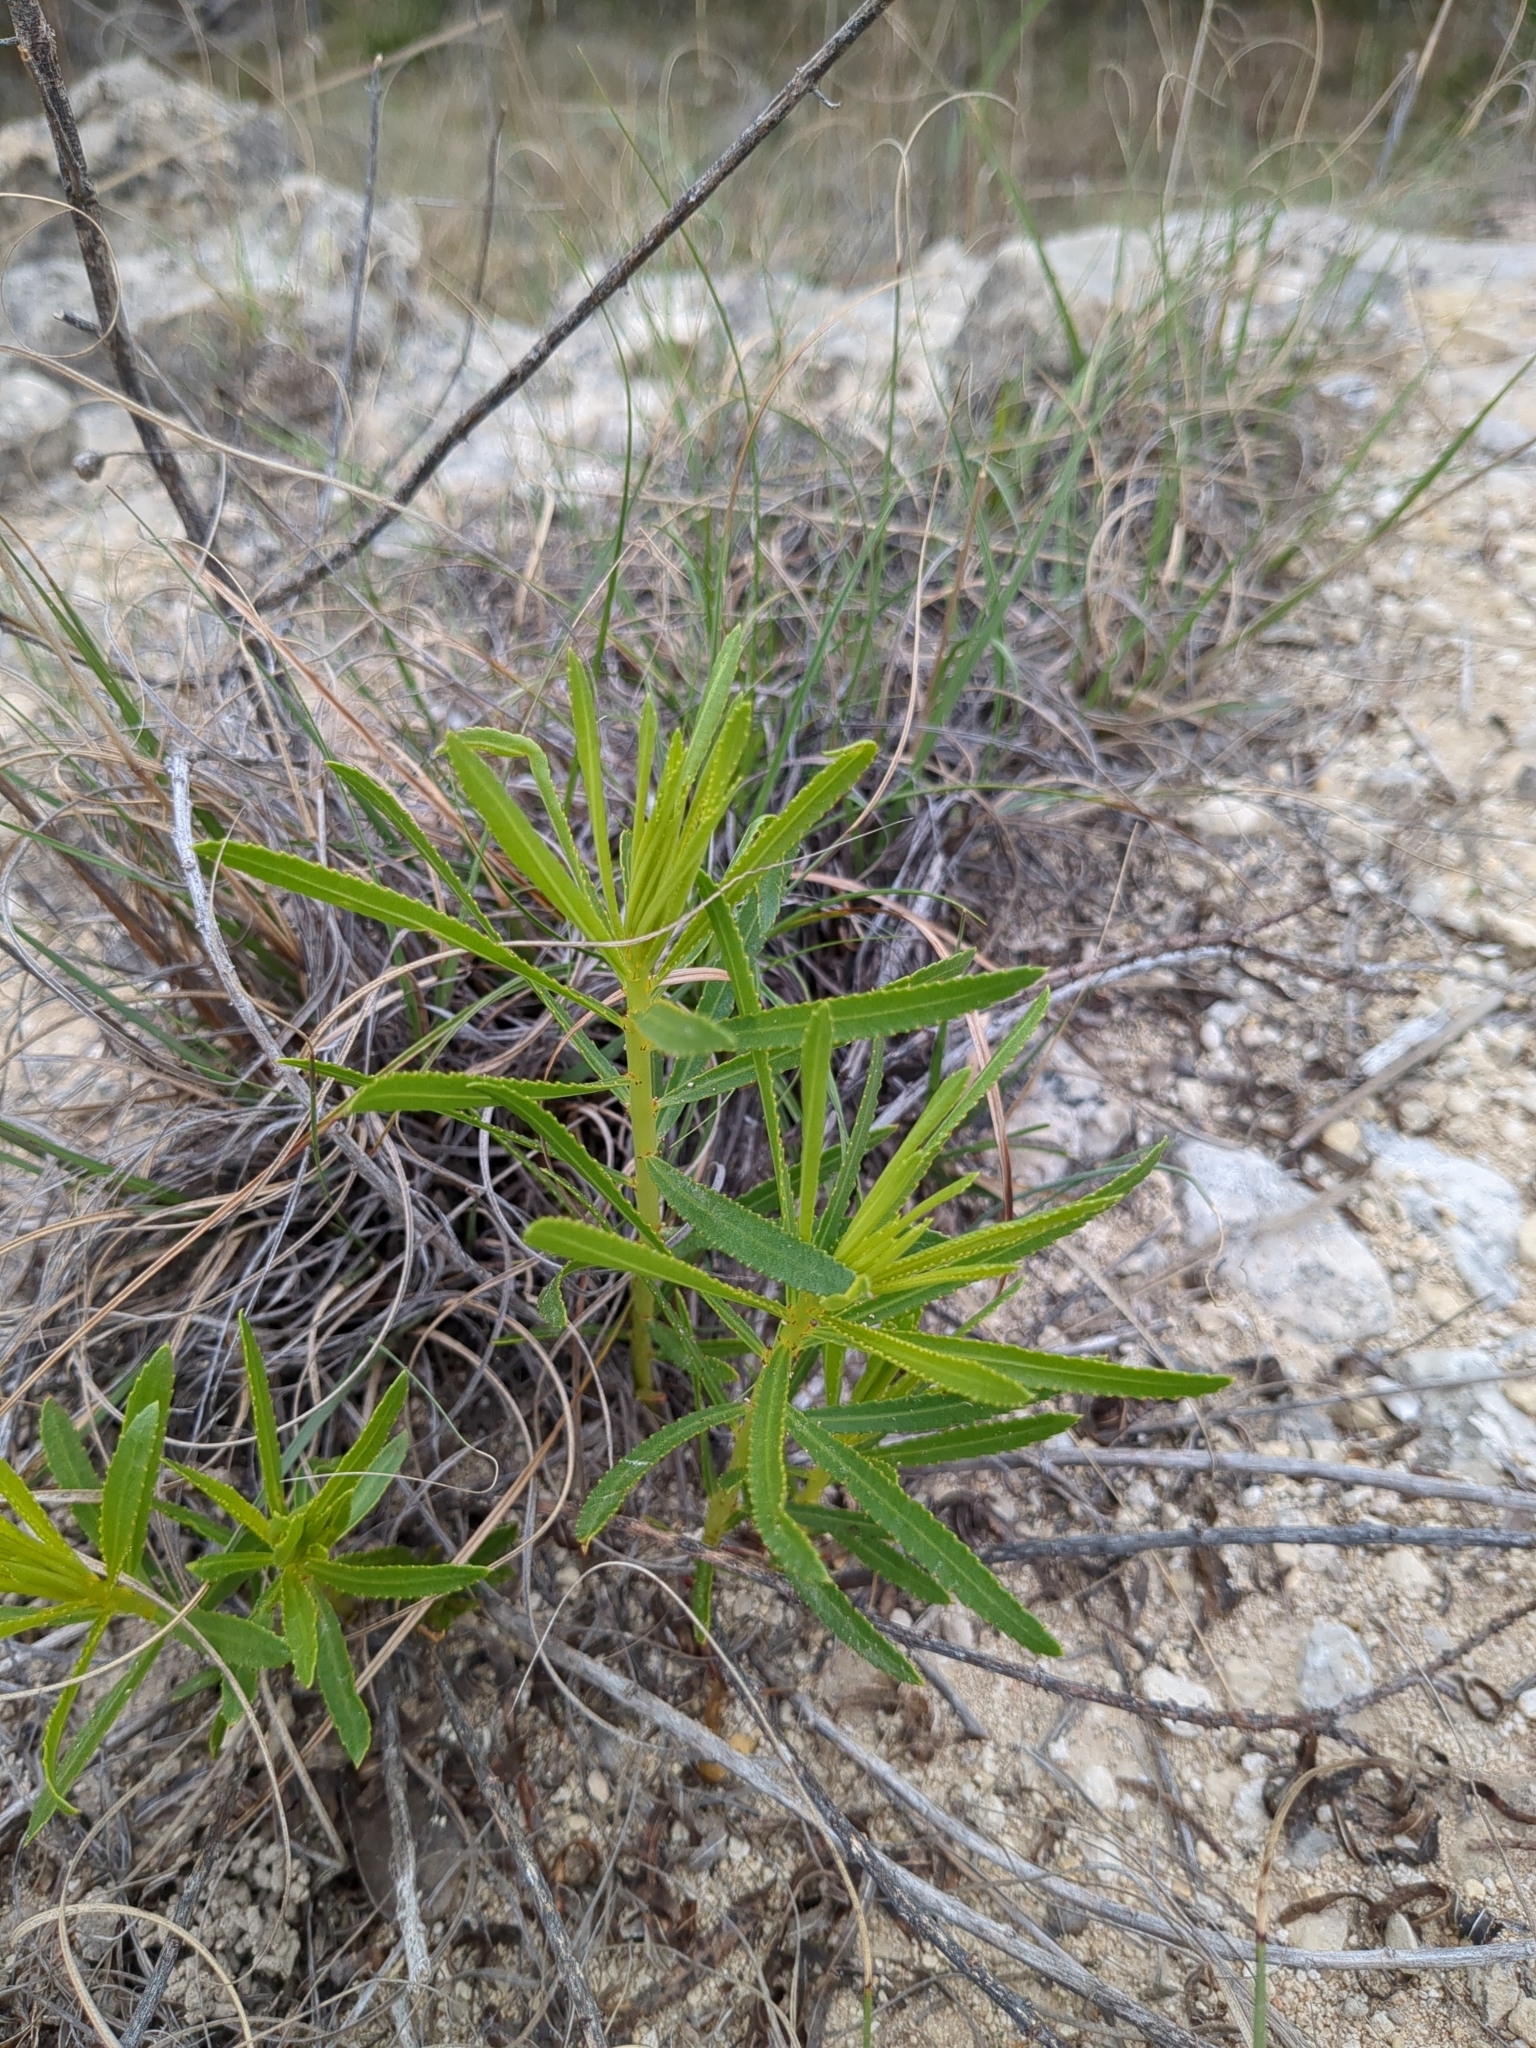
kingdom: Plantae
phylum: Tracheophyta
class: Magnoliopsida
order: Malpighiales
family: Euphorbiaceae
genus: Stillingia
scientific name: Stillingia texana
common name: Texas stillingia
